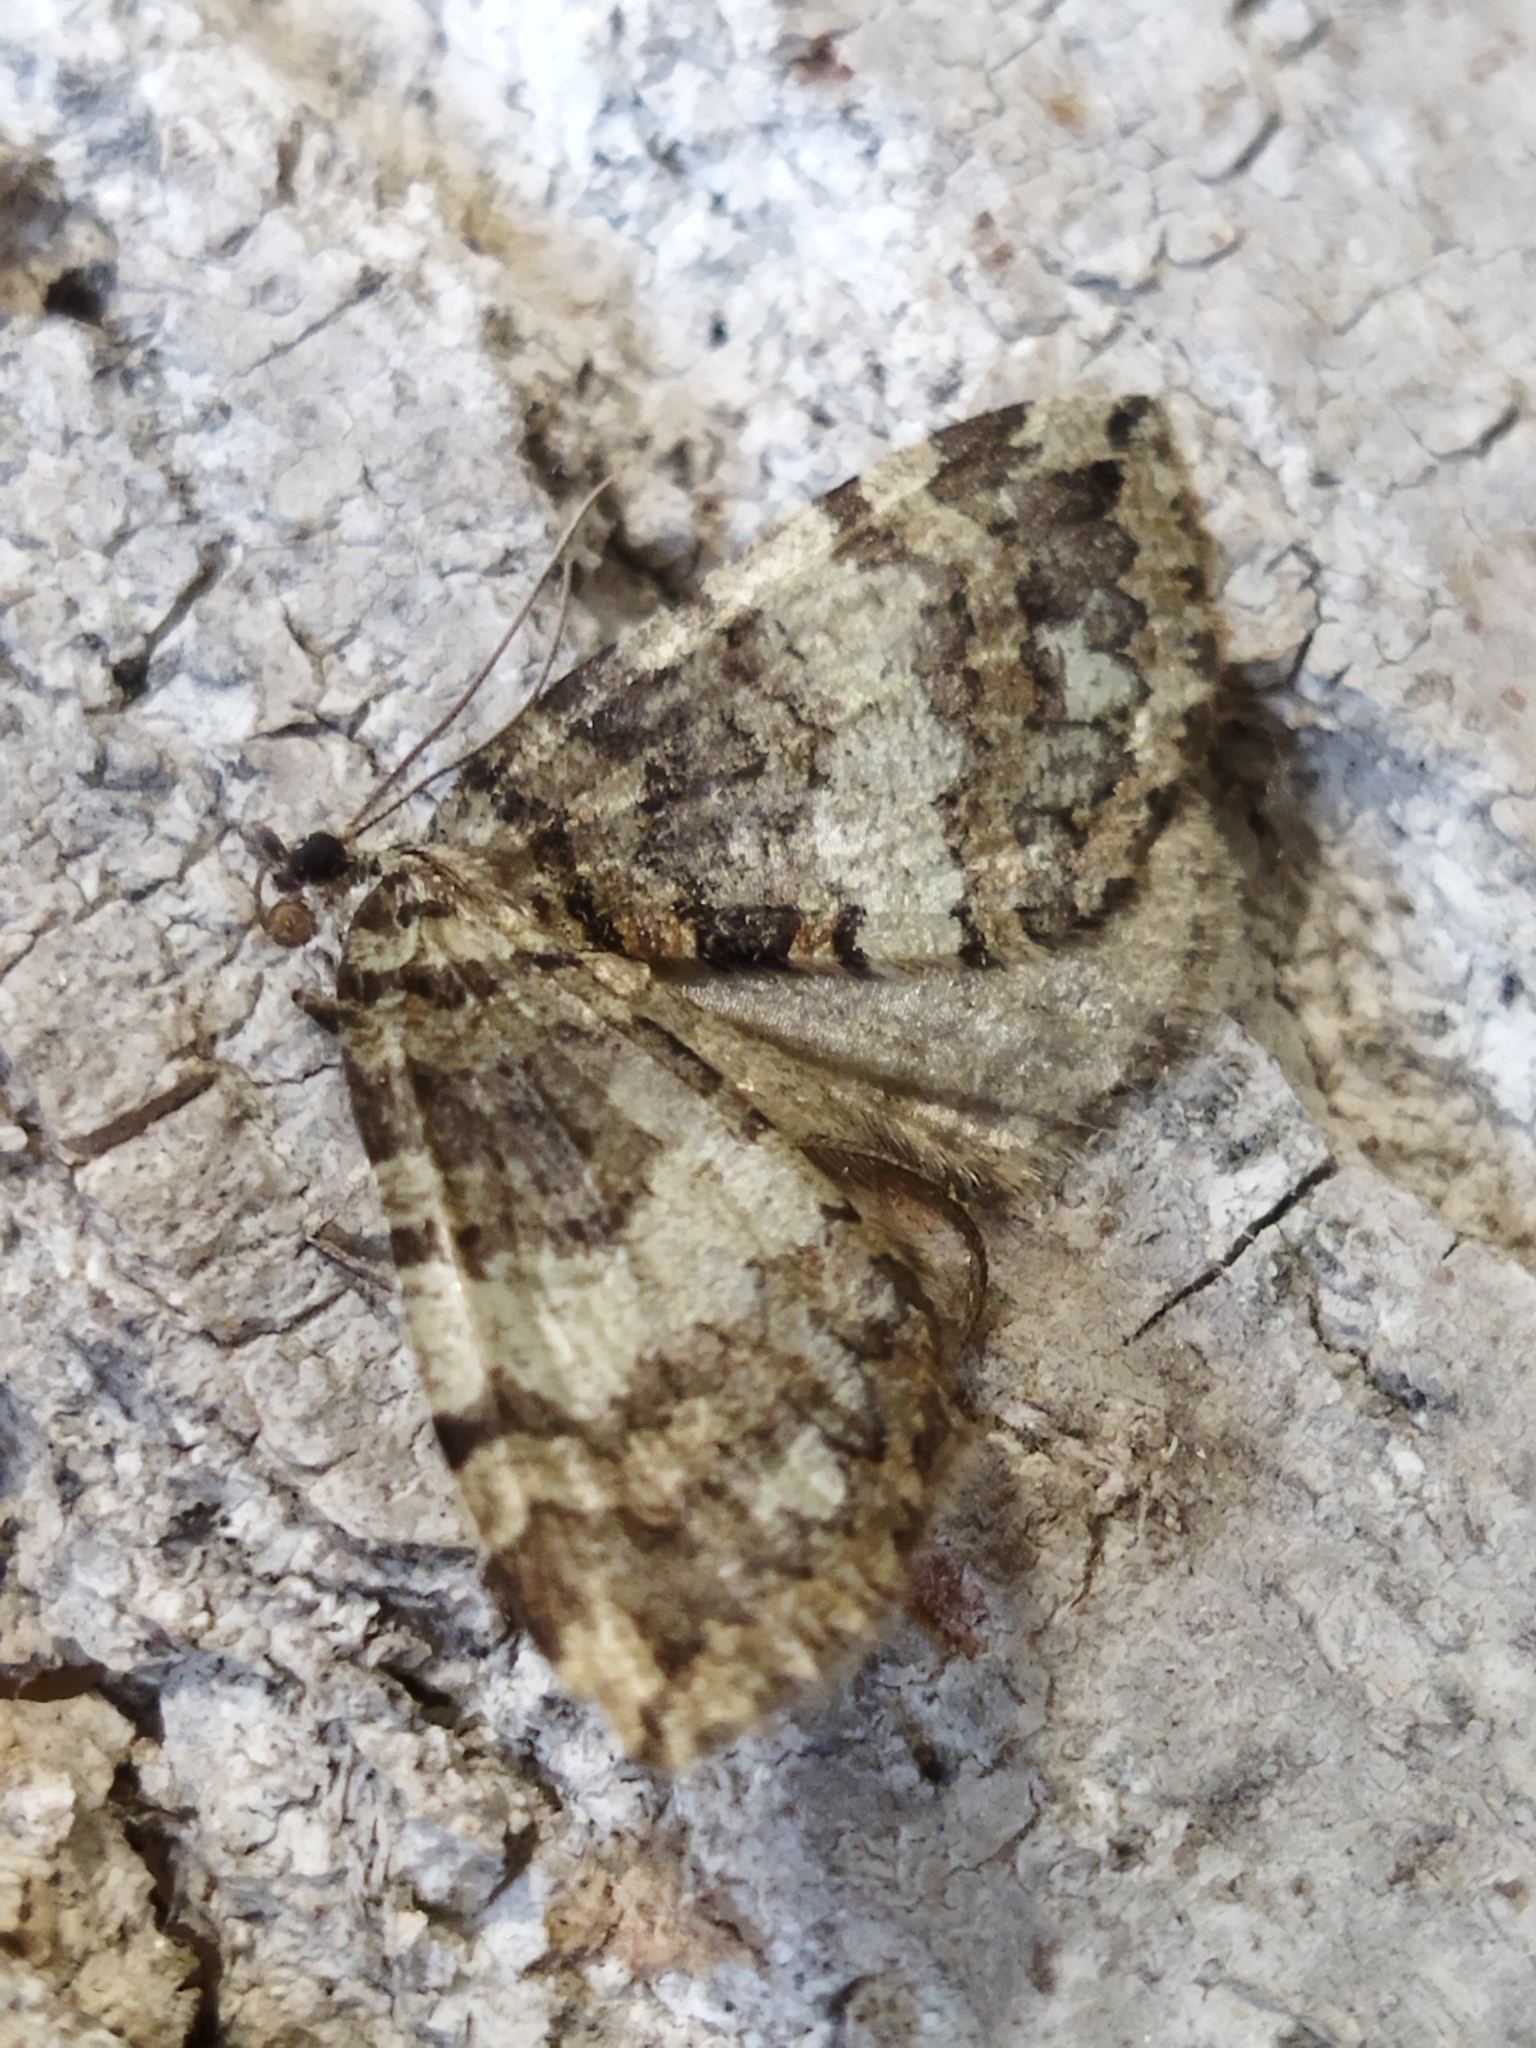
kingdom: Animalia
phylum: Arthropoda
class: Insecta
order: Lepidoptera
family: Geometridae
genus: Hydriomena
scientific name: Hydriomena furcata
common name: July highflyer
